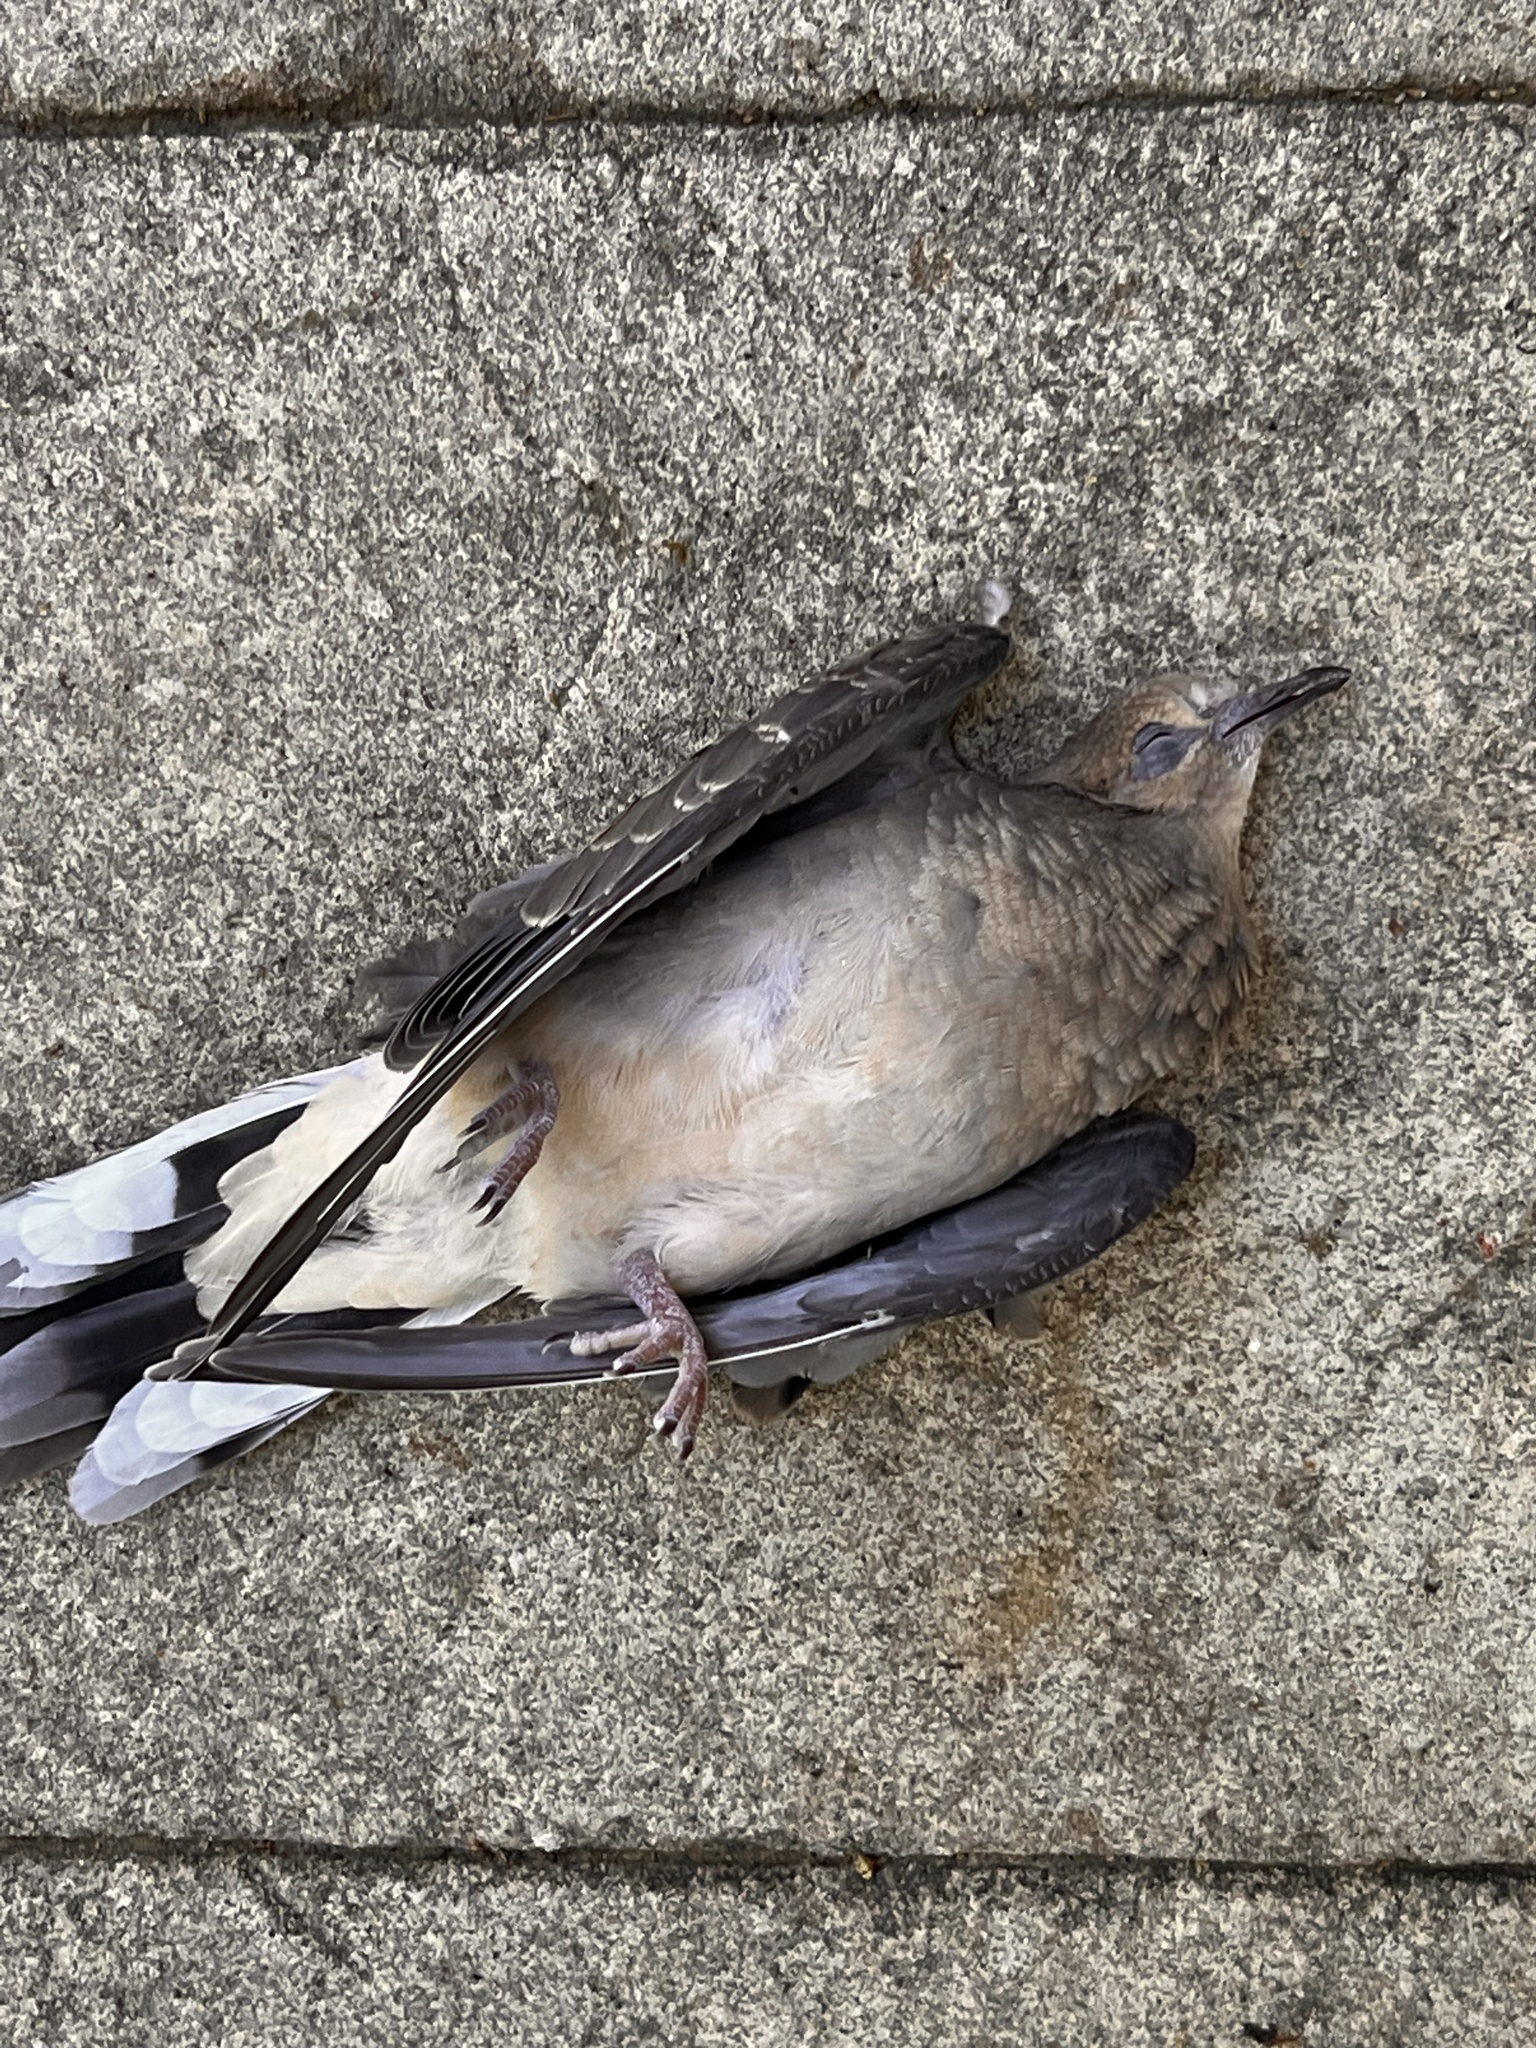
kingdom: Animalia
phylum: Chordata
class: Aves
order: Columbiformes
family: Columbidae
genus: Zenaida
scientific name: Zenaida macroura
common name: Mourning dove
